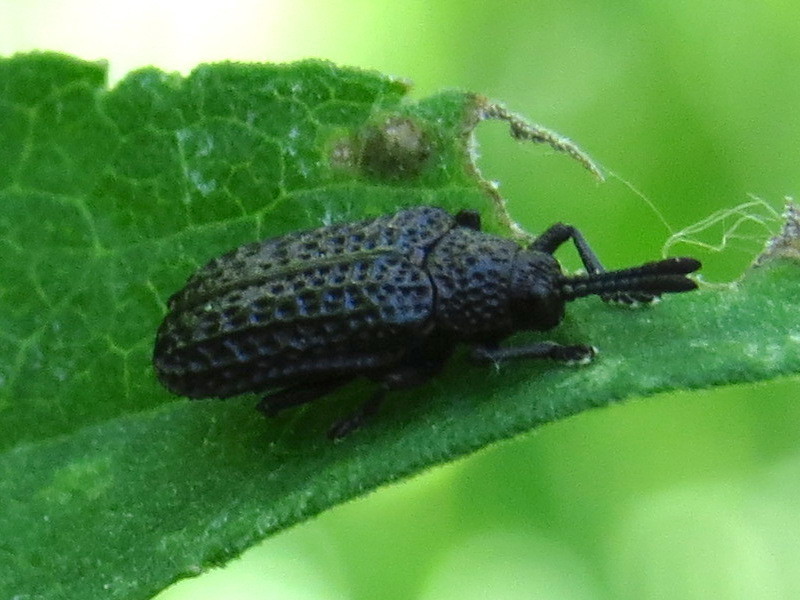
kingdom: Animalia
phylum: Arthropoda
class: Insecta
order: Coleoptera
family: Chrysomelidae
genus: Microrhopala
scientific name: Microrhopala excavata
